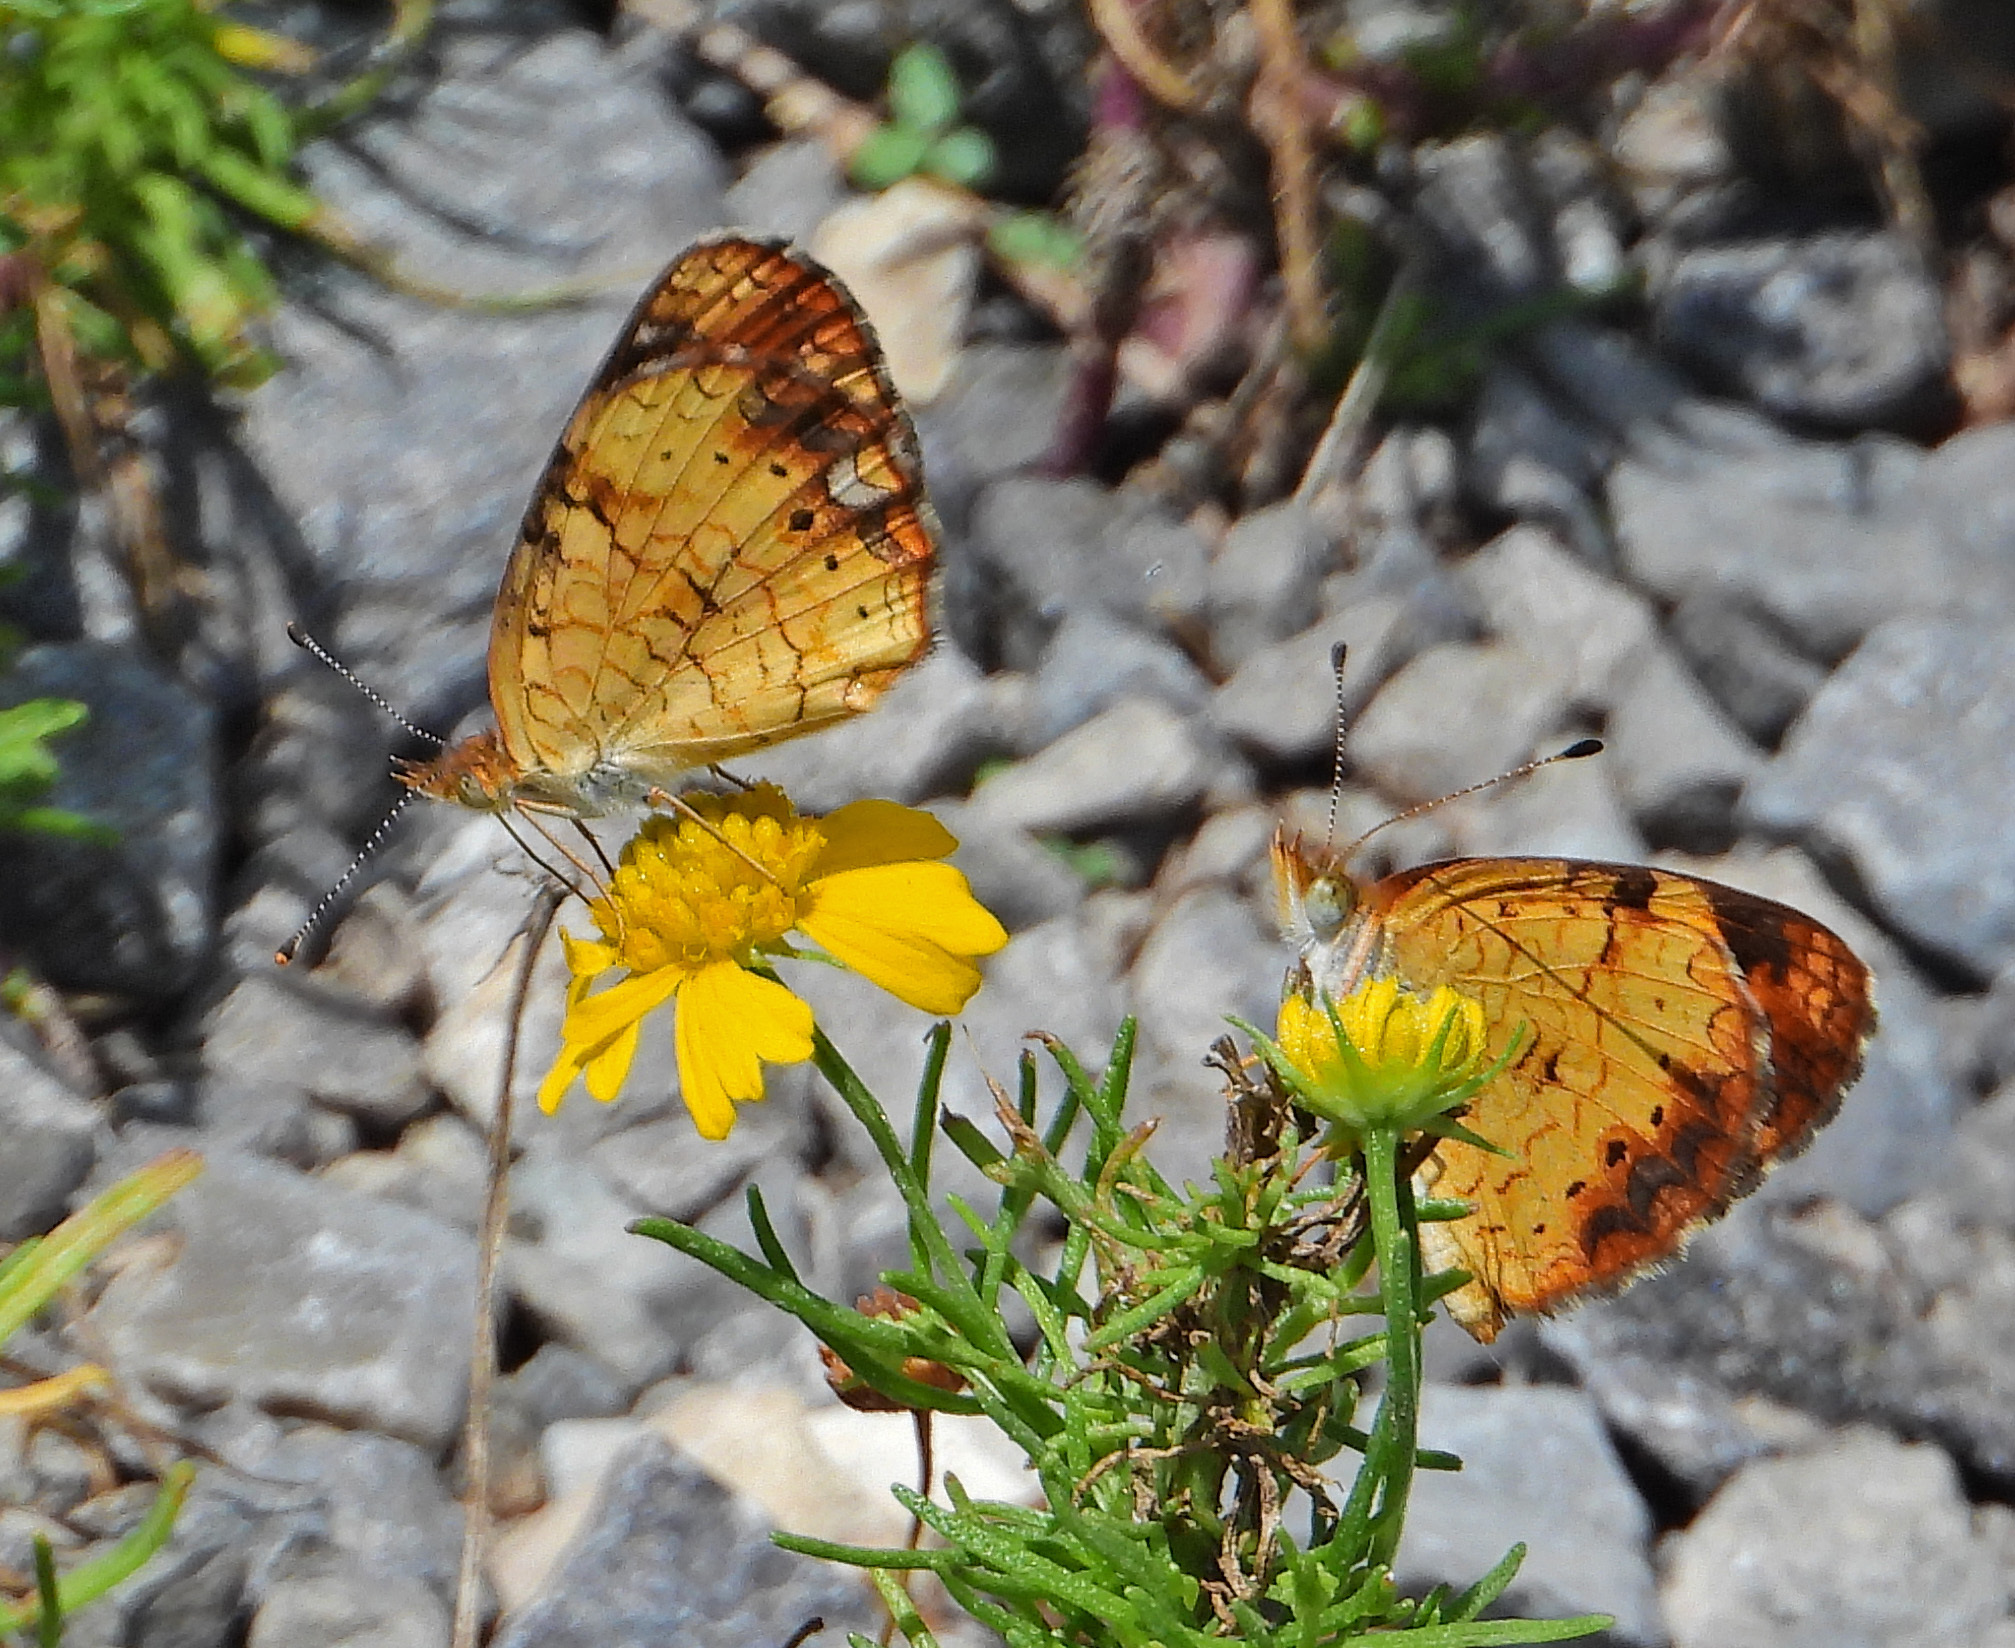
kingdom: Animalia
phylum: Arthropoda
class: Insecta
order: Lepidoptera
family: Nymphalidae
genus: Phyciodes
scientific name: Phyciodes tharos
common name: Pearl crescent
